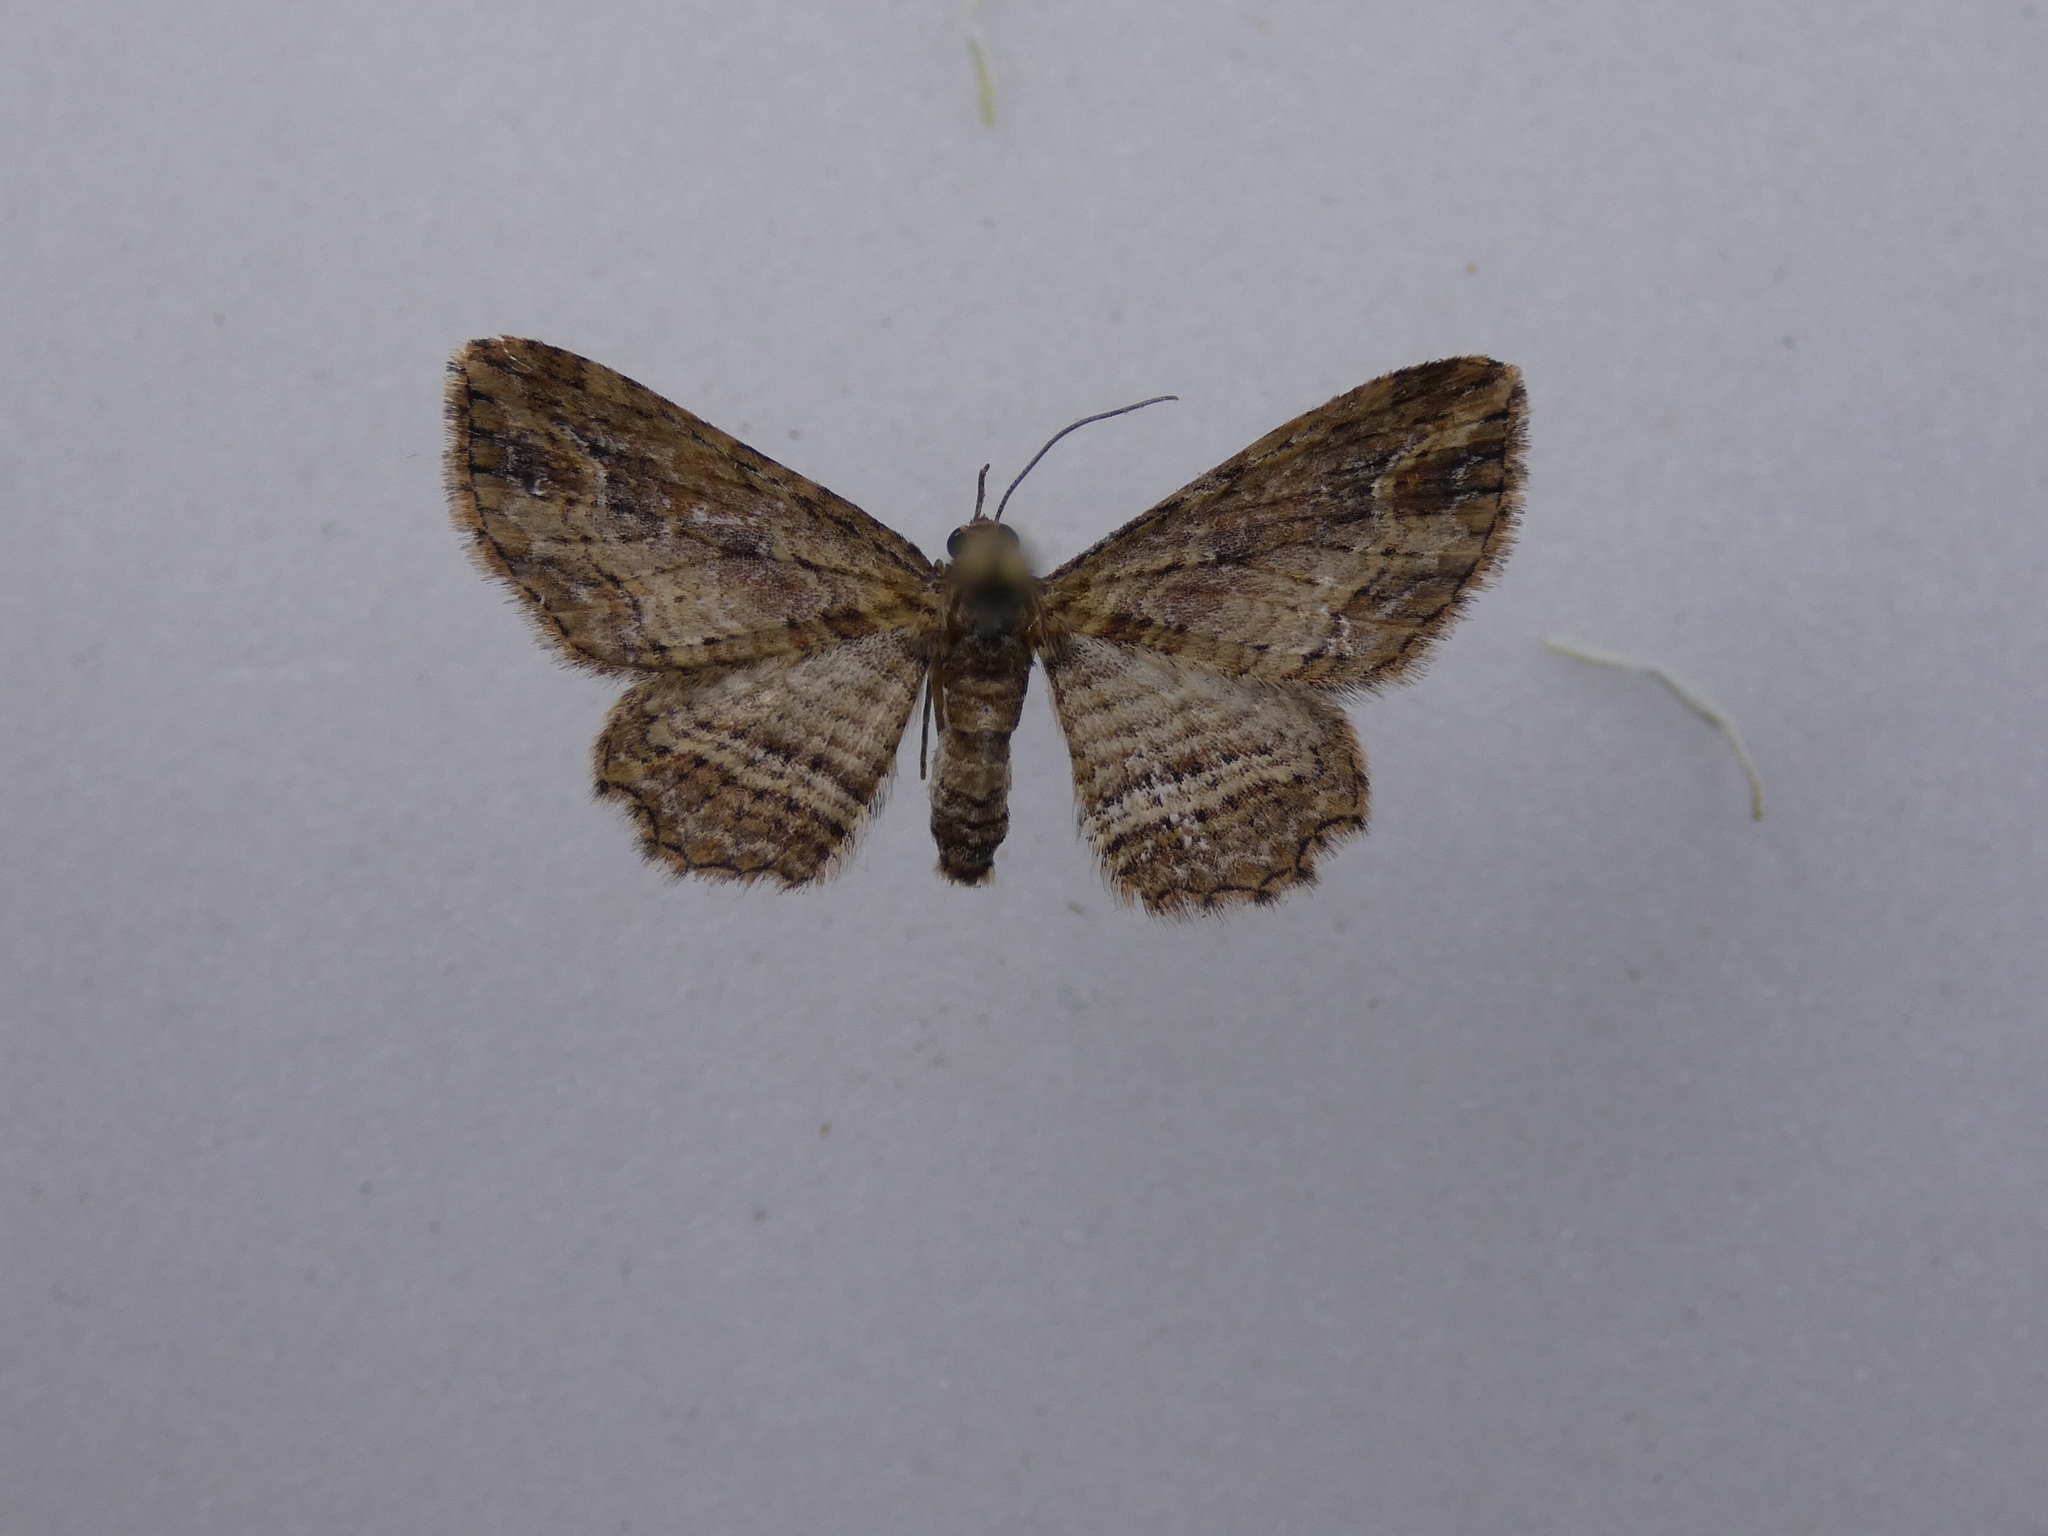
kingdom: Animalia
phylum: Arthropoda
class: Insecta
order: Lepidoptera
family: Geometridae
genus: Chloroclystis
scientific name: Chloroclystis filata
